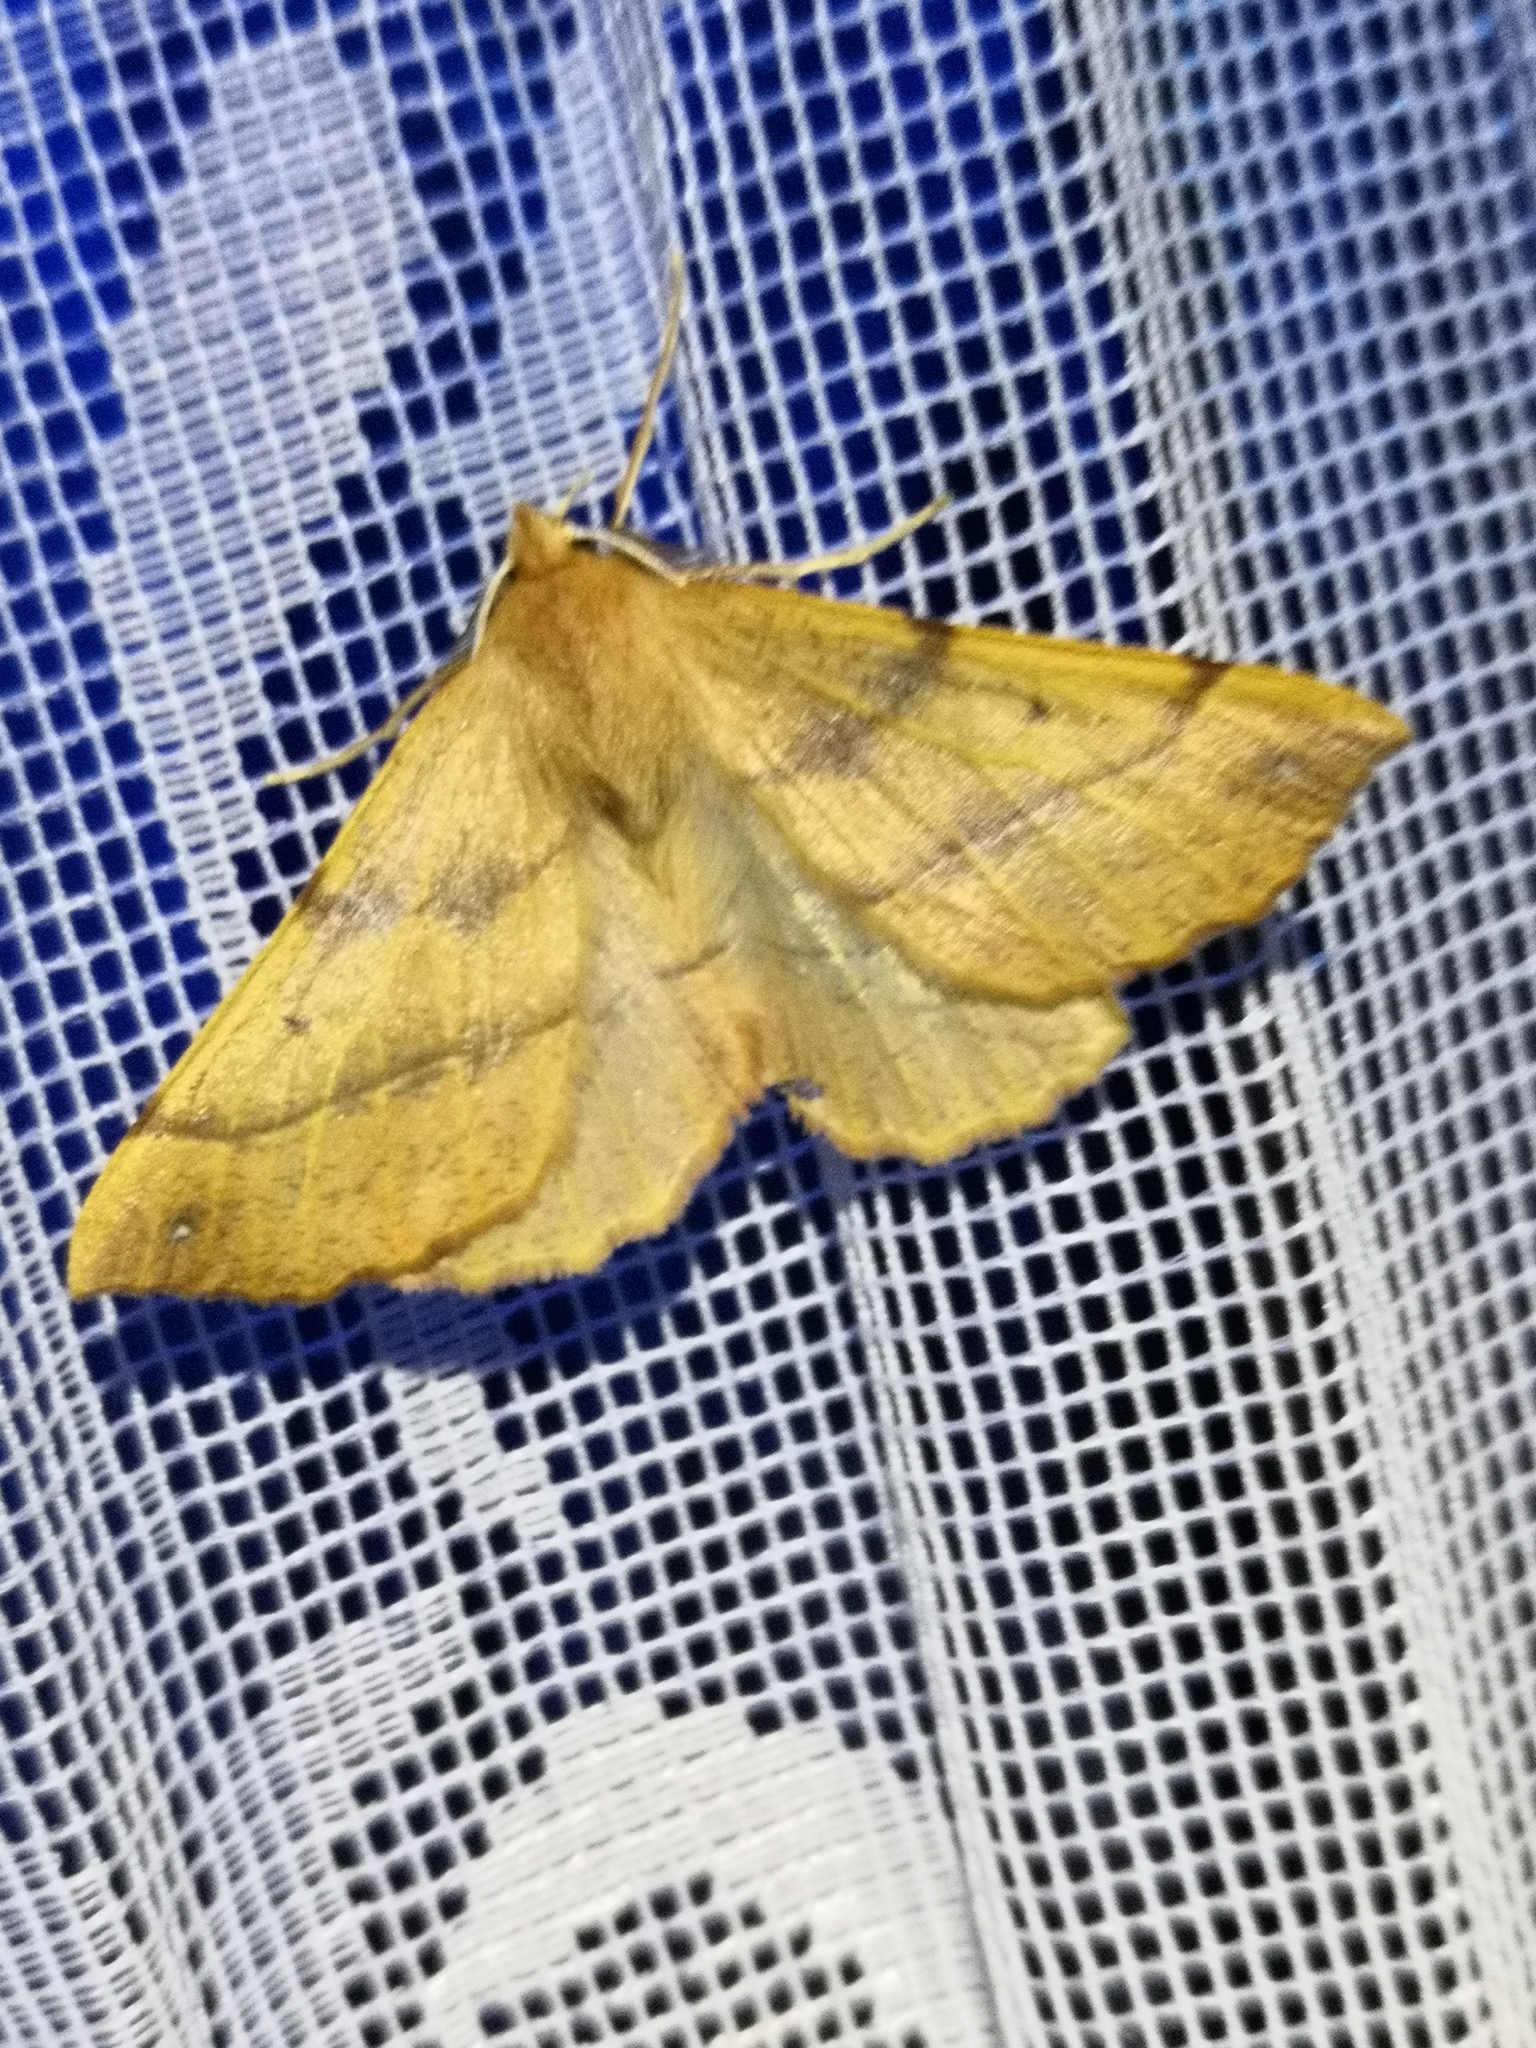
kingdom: Animalia
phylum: Arthropoda
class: Insecta
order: Lepidoptera
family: Geometridae
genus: Colotois
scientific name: Colotois pennaria
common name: Feathered thorn
